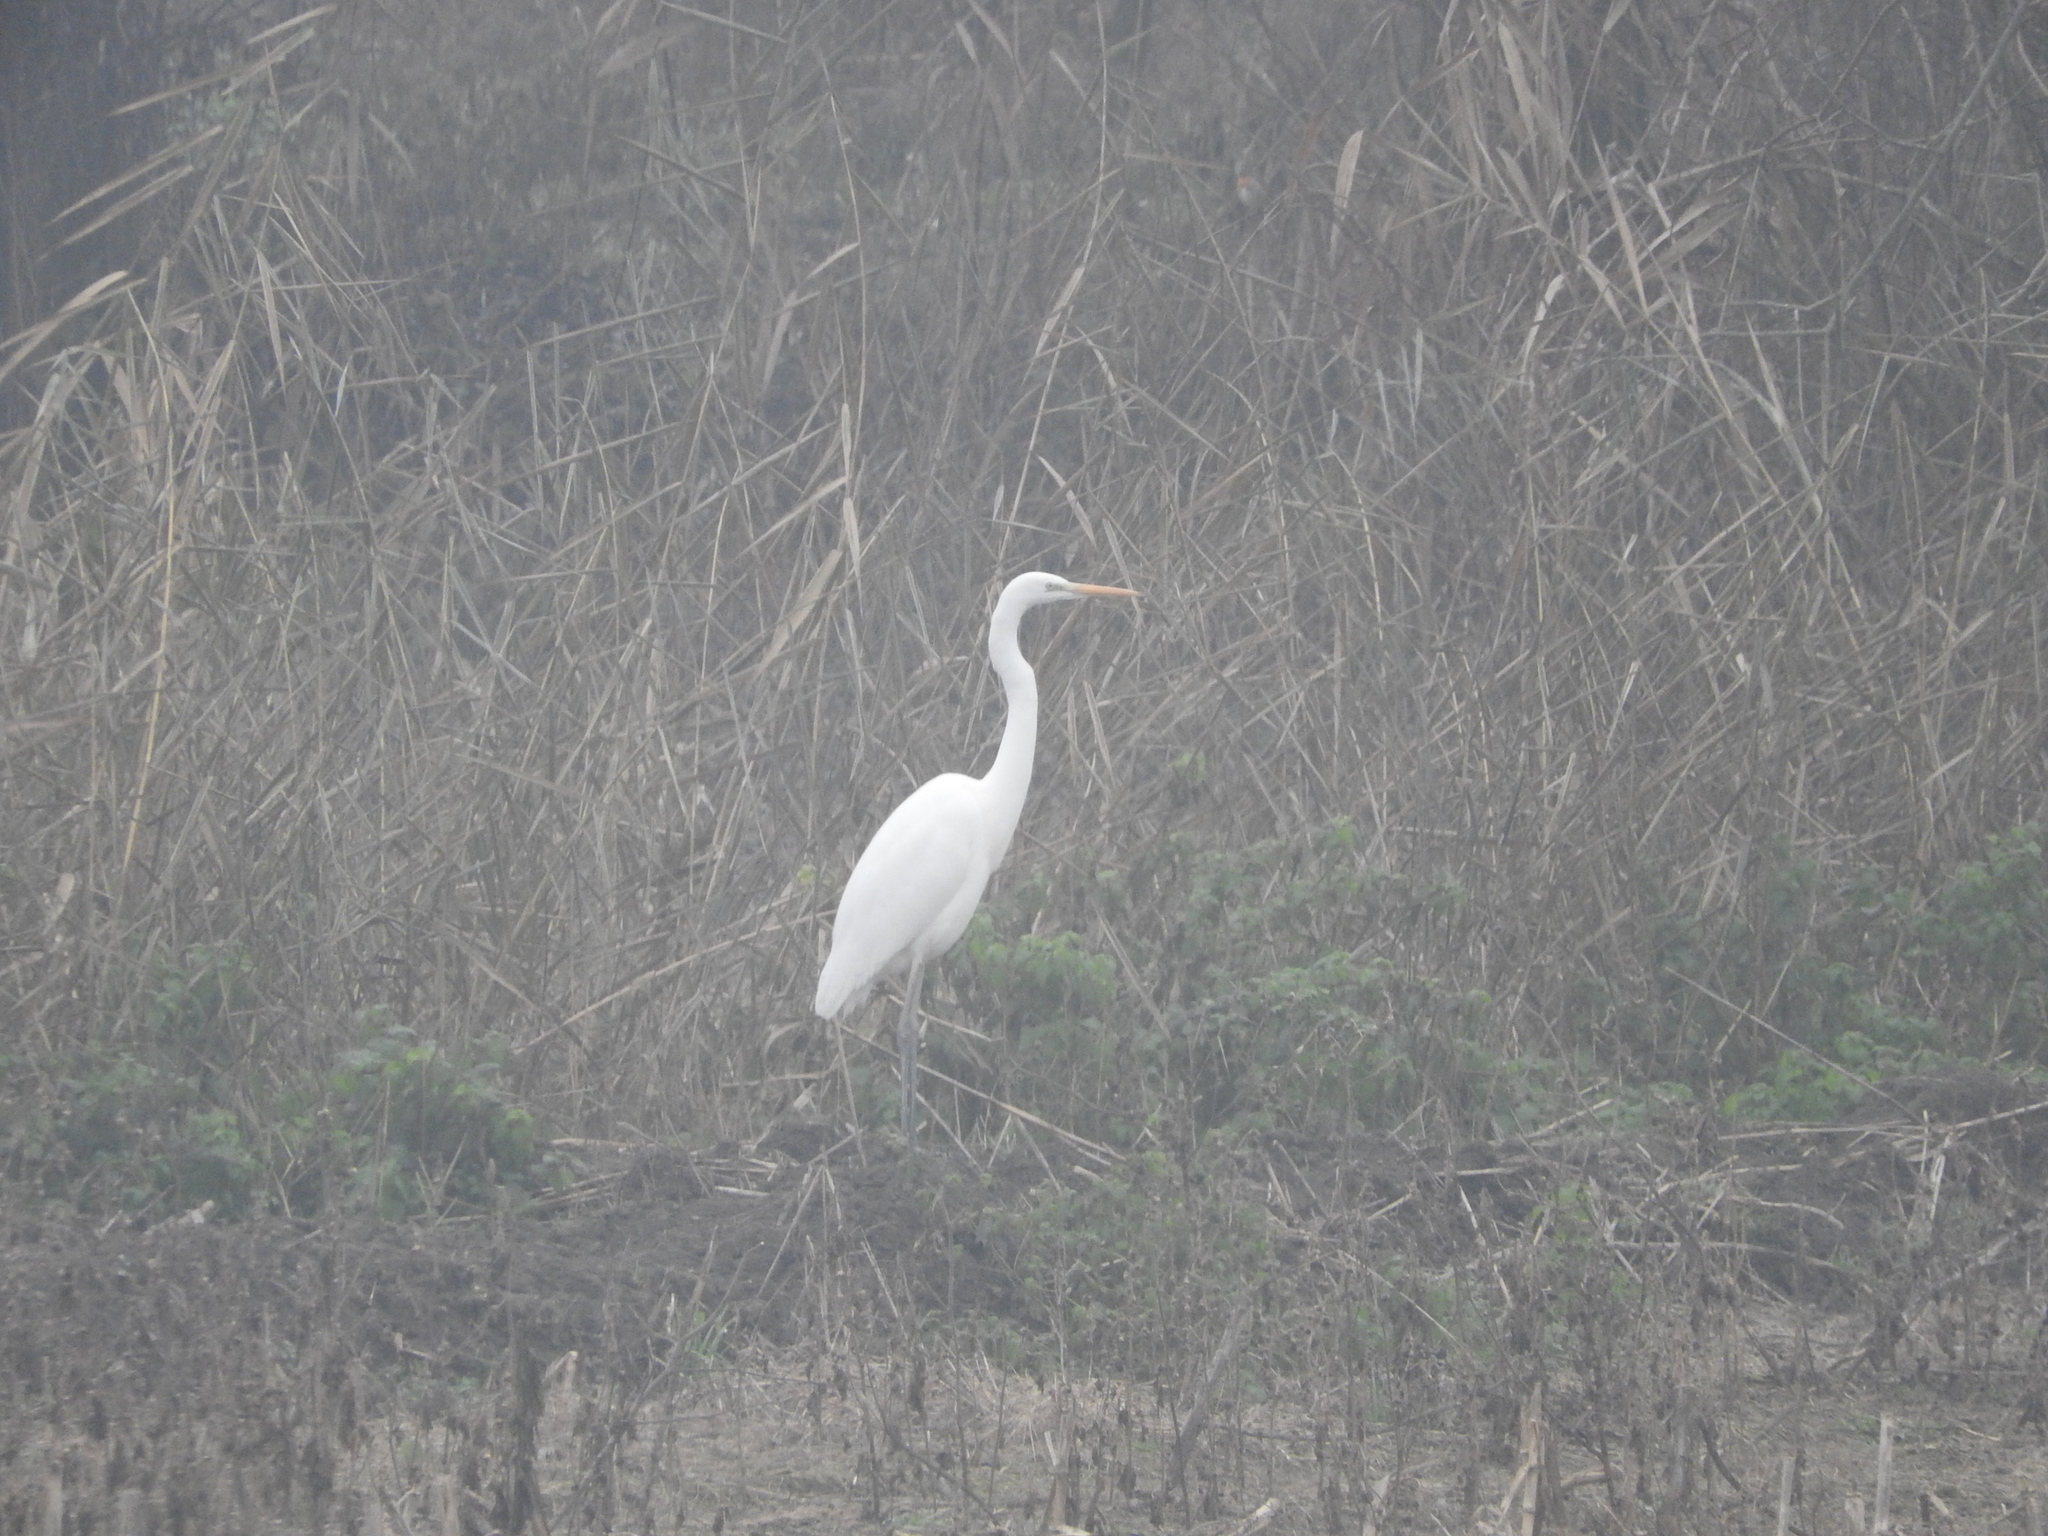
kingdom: Animalia
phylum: Chordata
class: Aves
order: Pelecaniformes
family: Ardeidae
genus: Ardea
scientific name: Ardea alba
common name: Great egret
